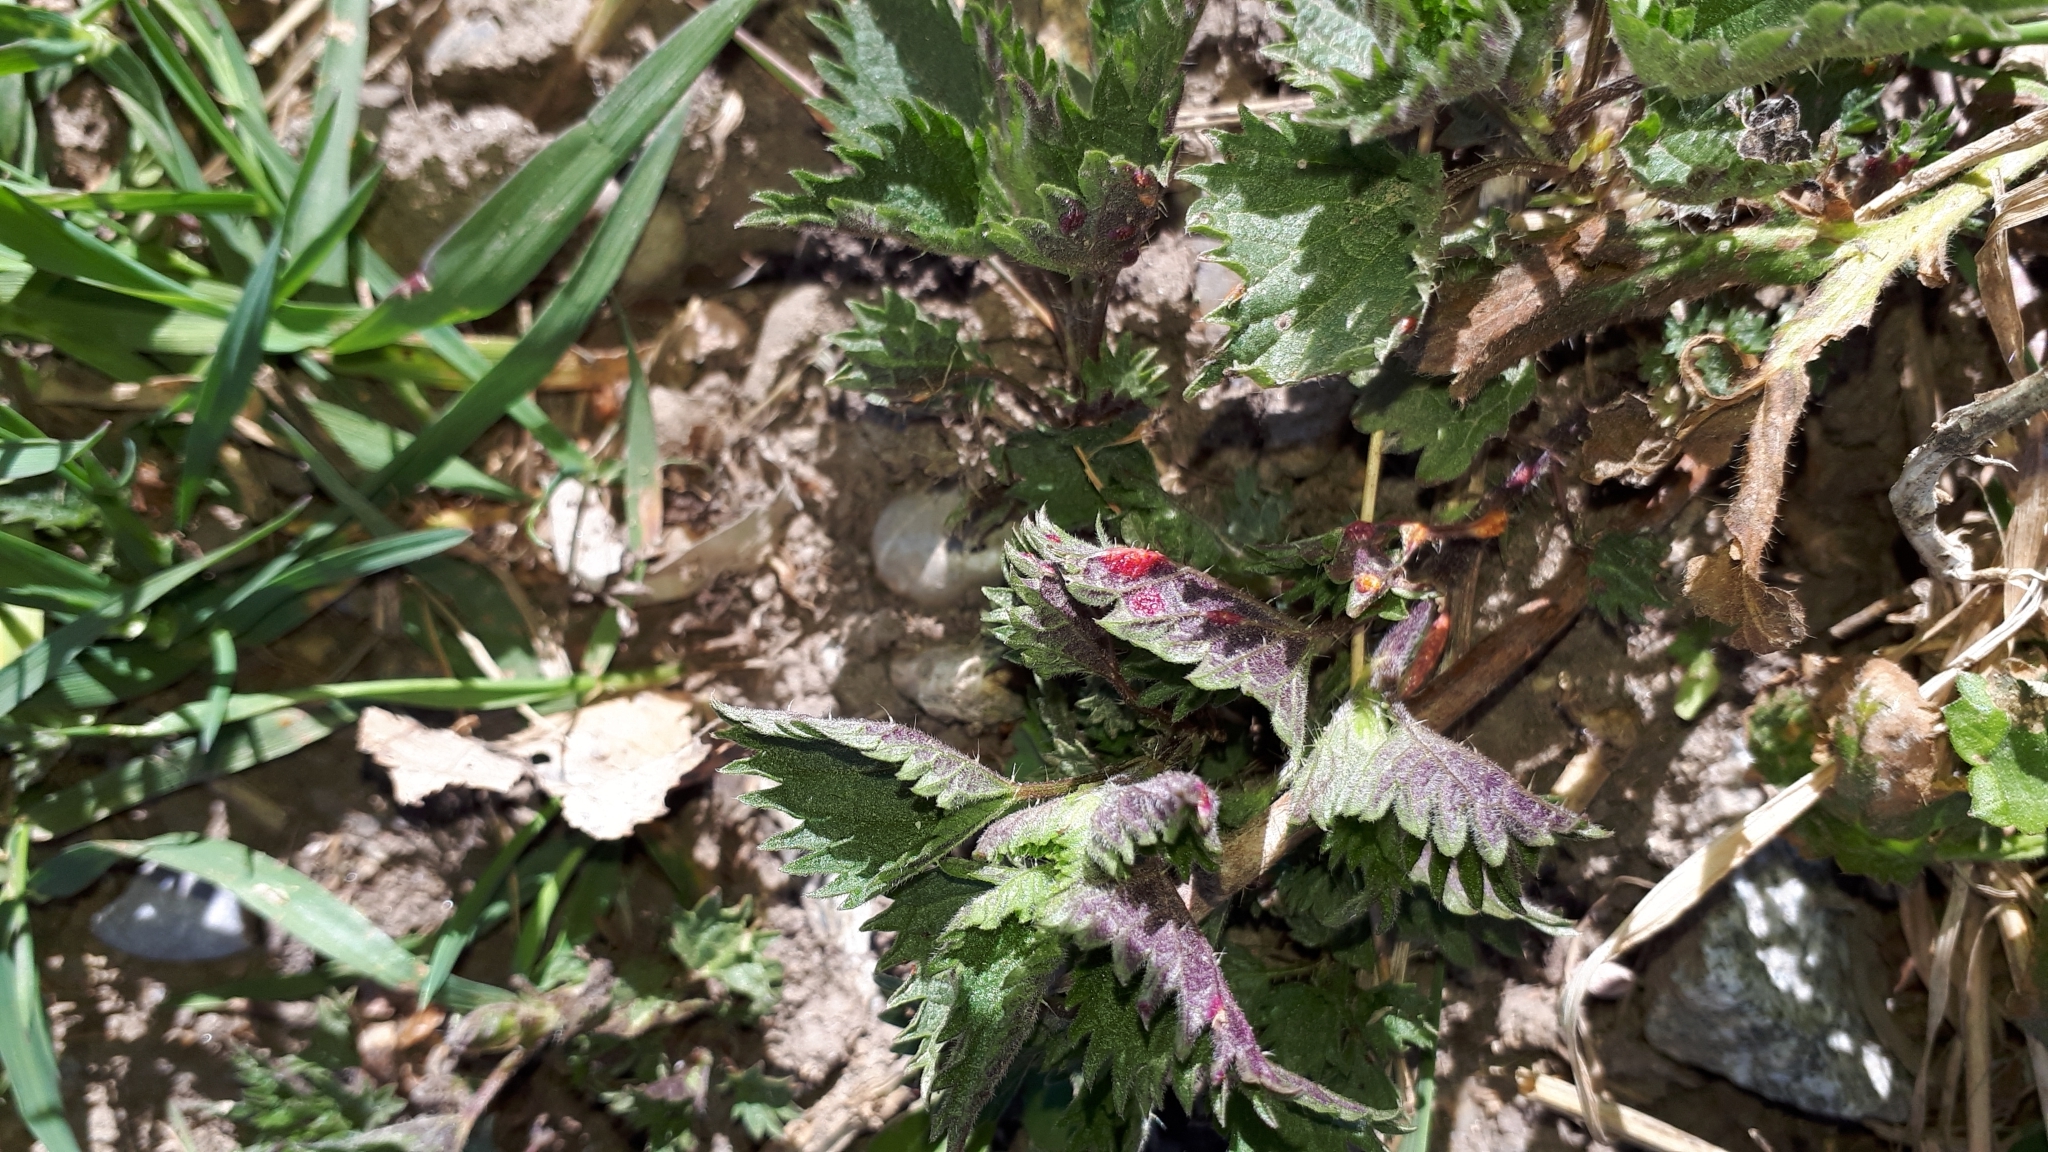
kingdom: Fungi
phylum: Basidiomycota
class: Pucciniomycetes
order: Pucciniales
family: Pucciniaceae
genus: Puccinia
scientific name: Puccinia urticata
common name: Nettle clustercup rust fungus
